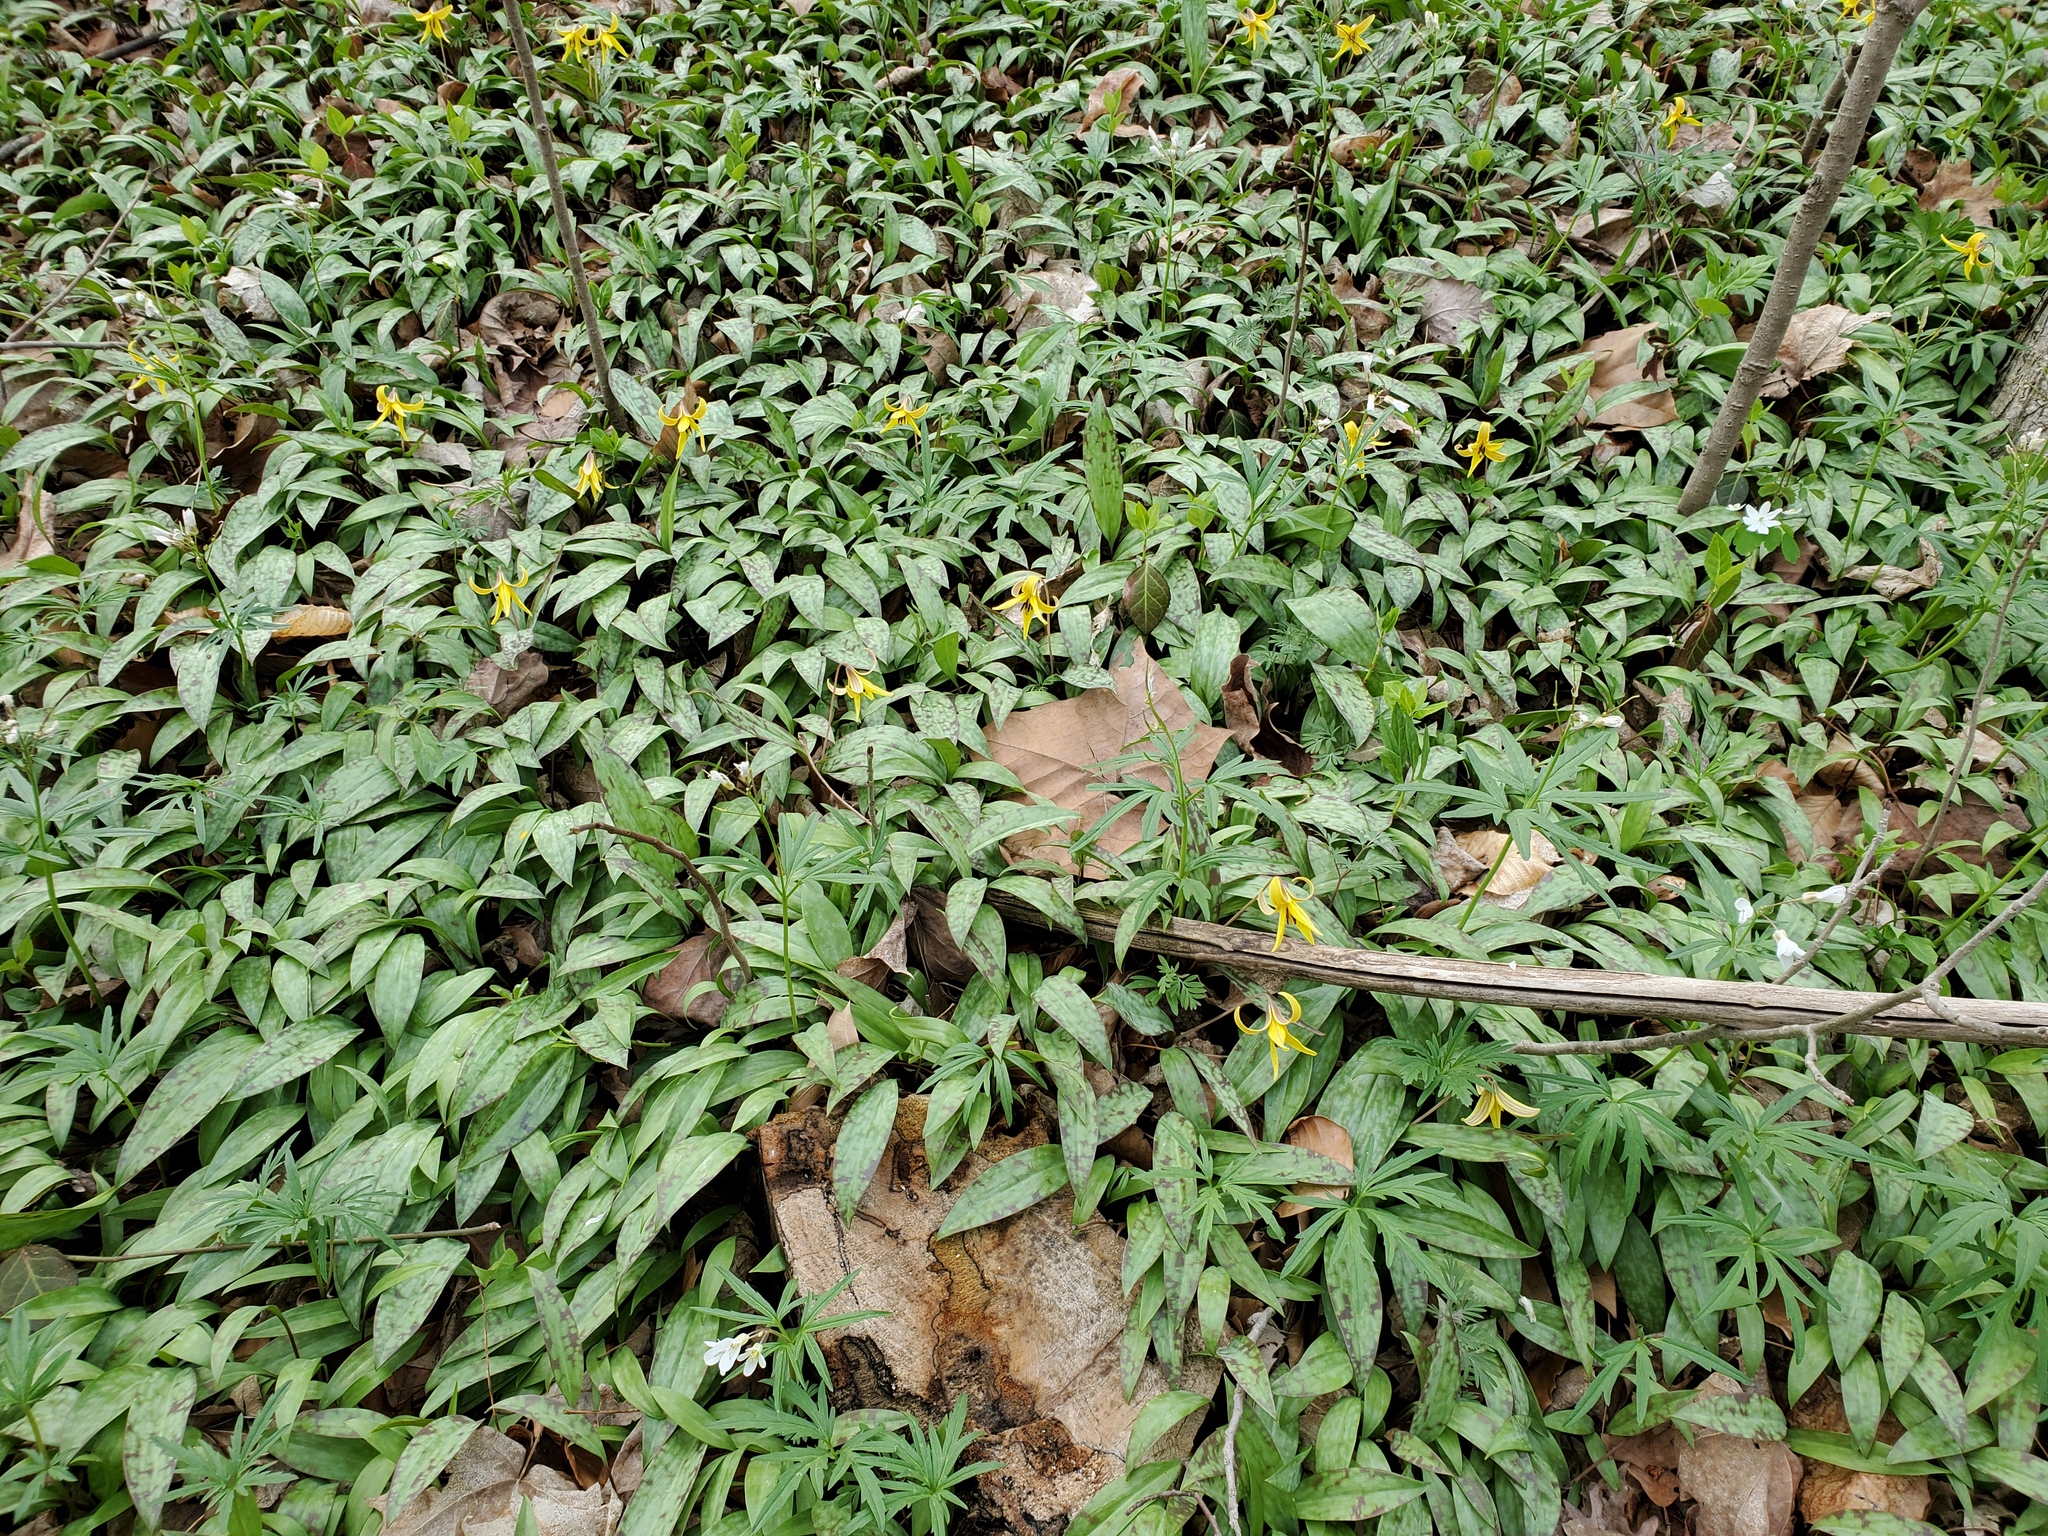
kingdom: Plantae
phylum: Tracheophyta
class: Liliopsida
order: Liliales
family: Liliaceae
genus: Erythronium
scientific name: Erythronium americanum
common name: Yellow adder's-tongue
